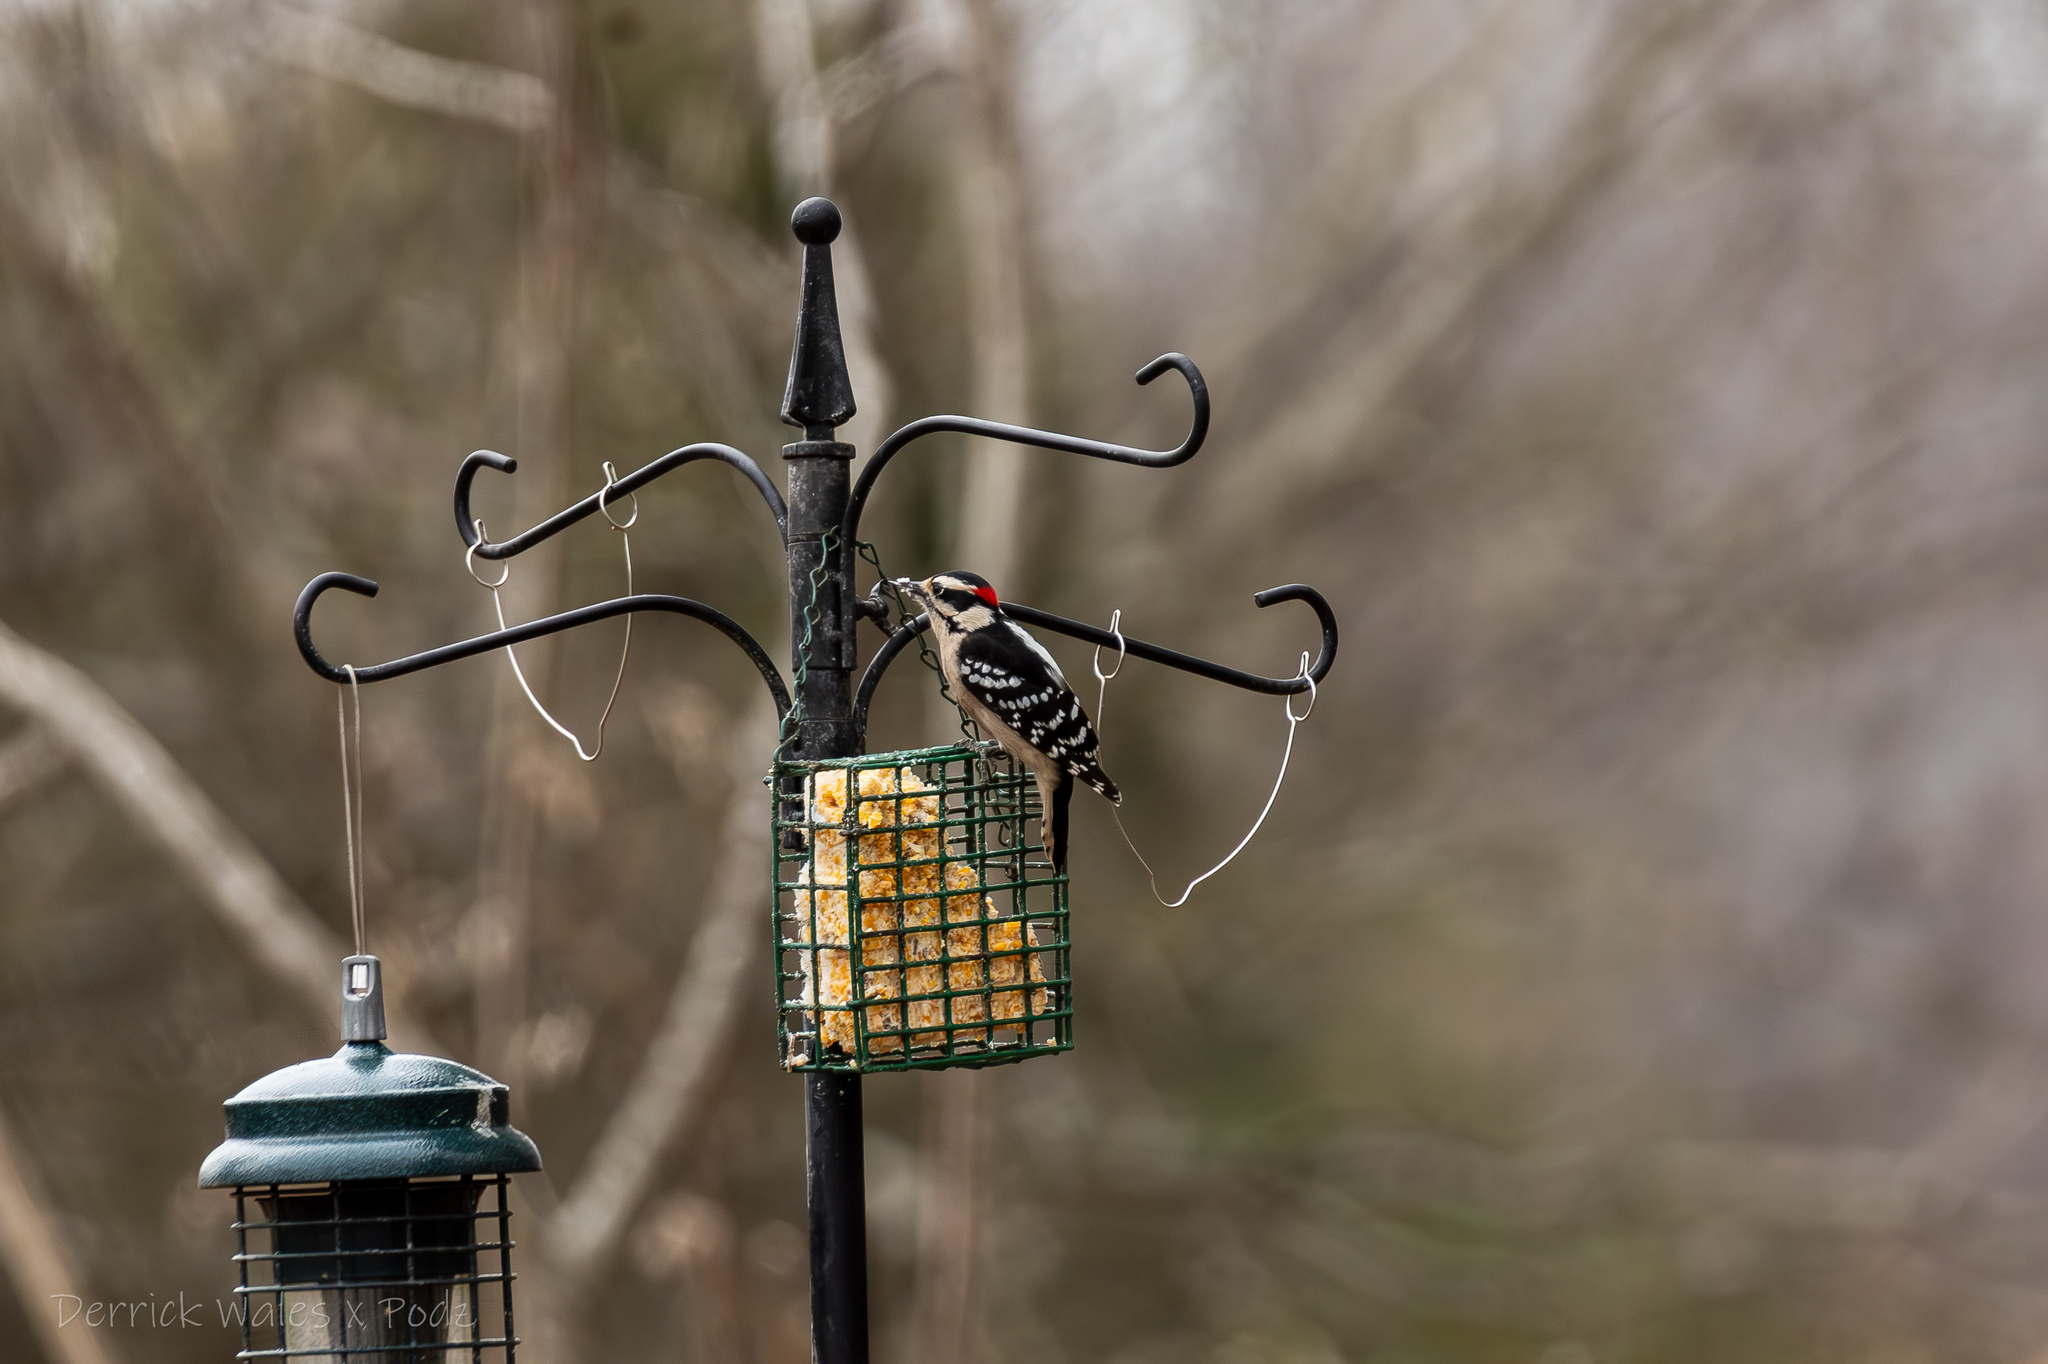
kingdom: Animalia
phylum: Chordata
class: Aves
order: Piciformes
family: Picidae
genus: Dryobates
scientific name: Dryobates pubescens
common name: Downy woodpecker
